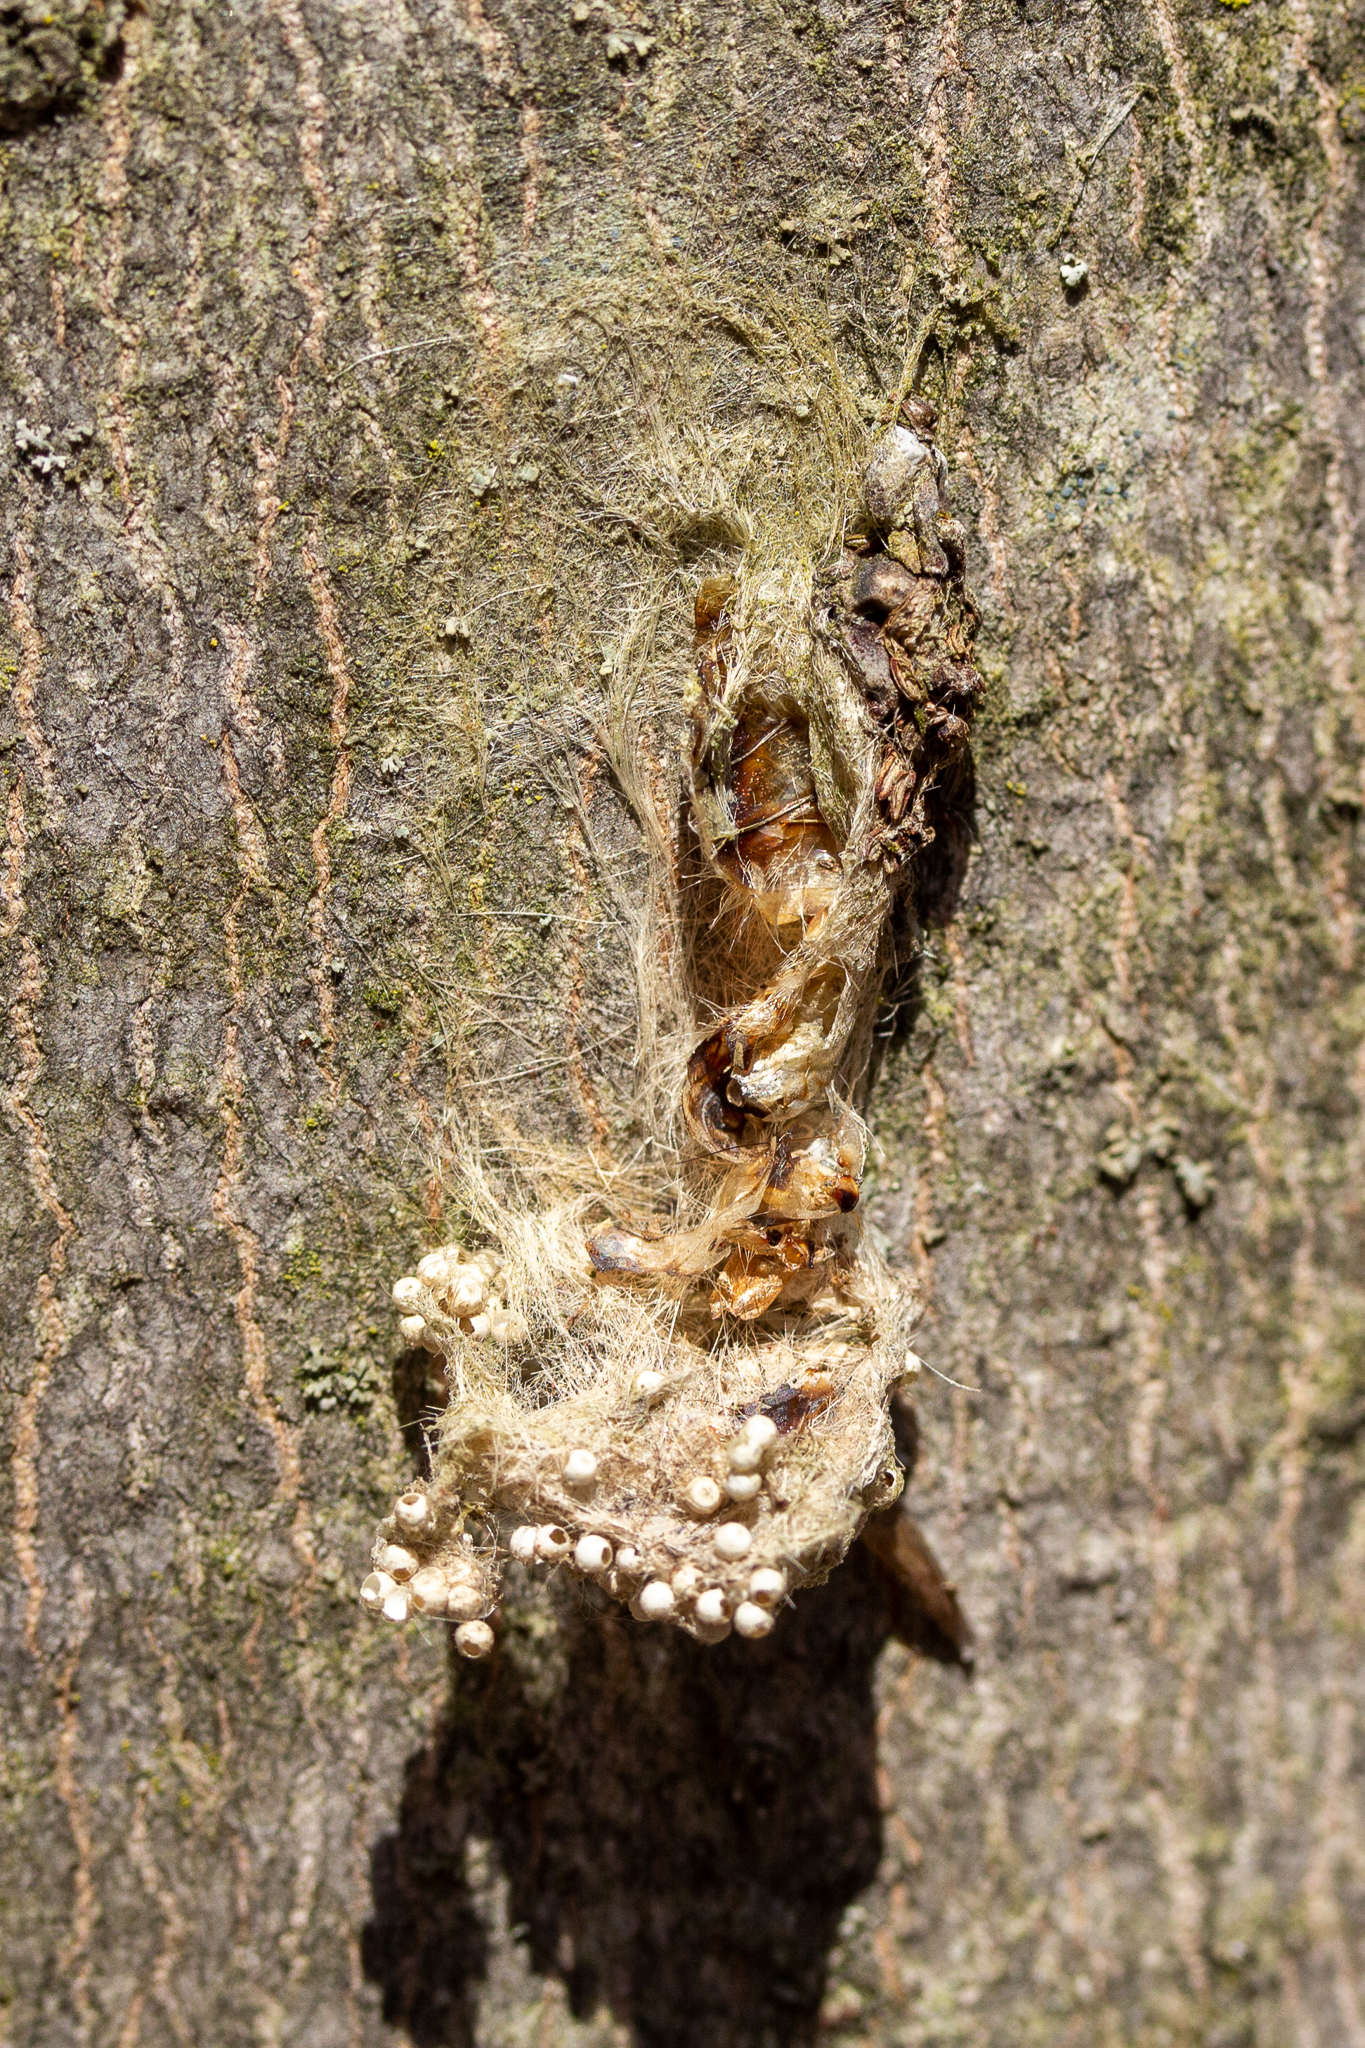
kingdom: Animalia
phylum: Arthropoda
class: Insecta
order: Lepidoptera
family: Erebidae
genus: Lymantria
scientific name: Lymantria dispar
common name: Gypsy moth
